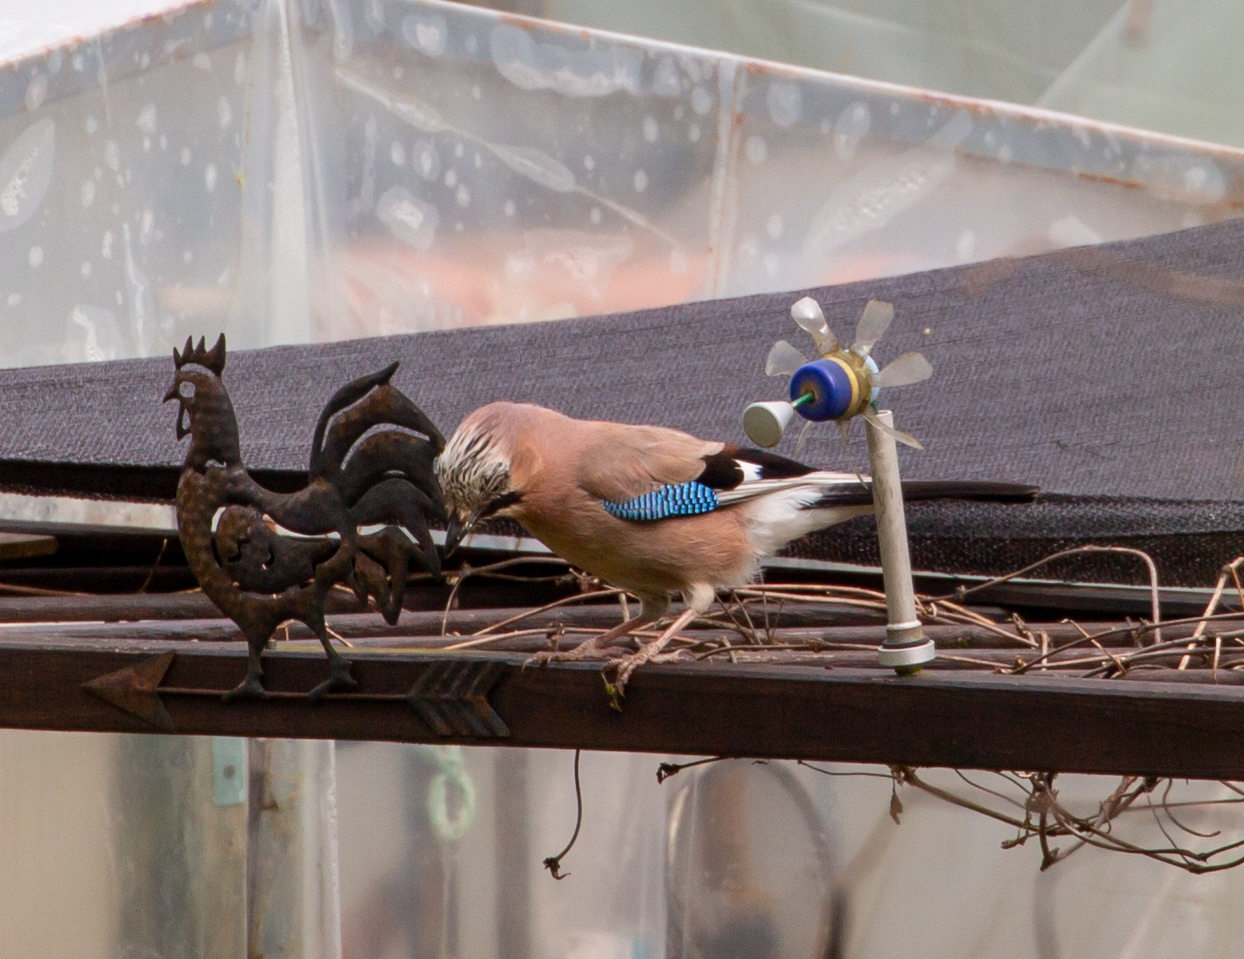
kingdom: Animalia
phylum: Chordata
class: Aves
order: Passeriformes
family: Corvidae
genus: Garrulus
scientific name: Garrulus glandarius
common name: Eurasian jay
